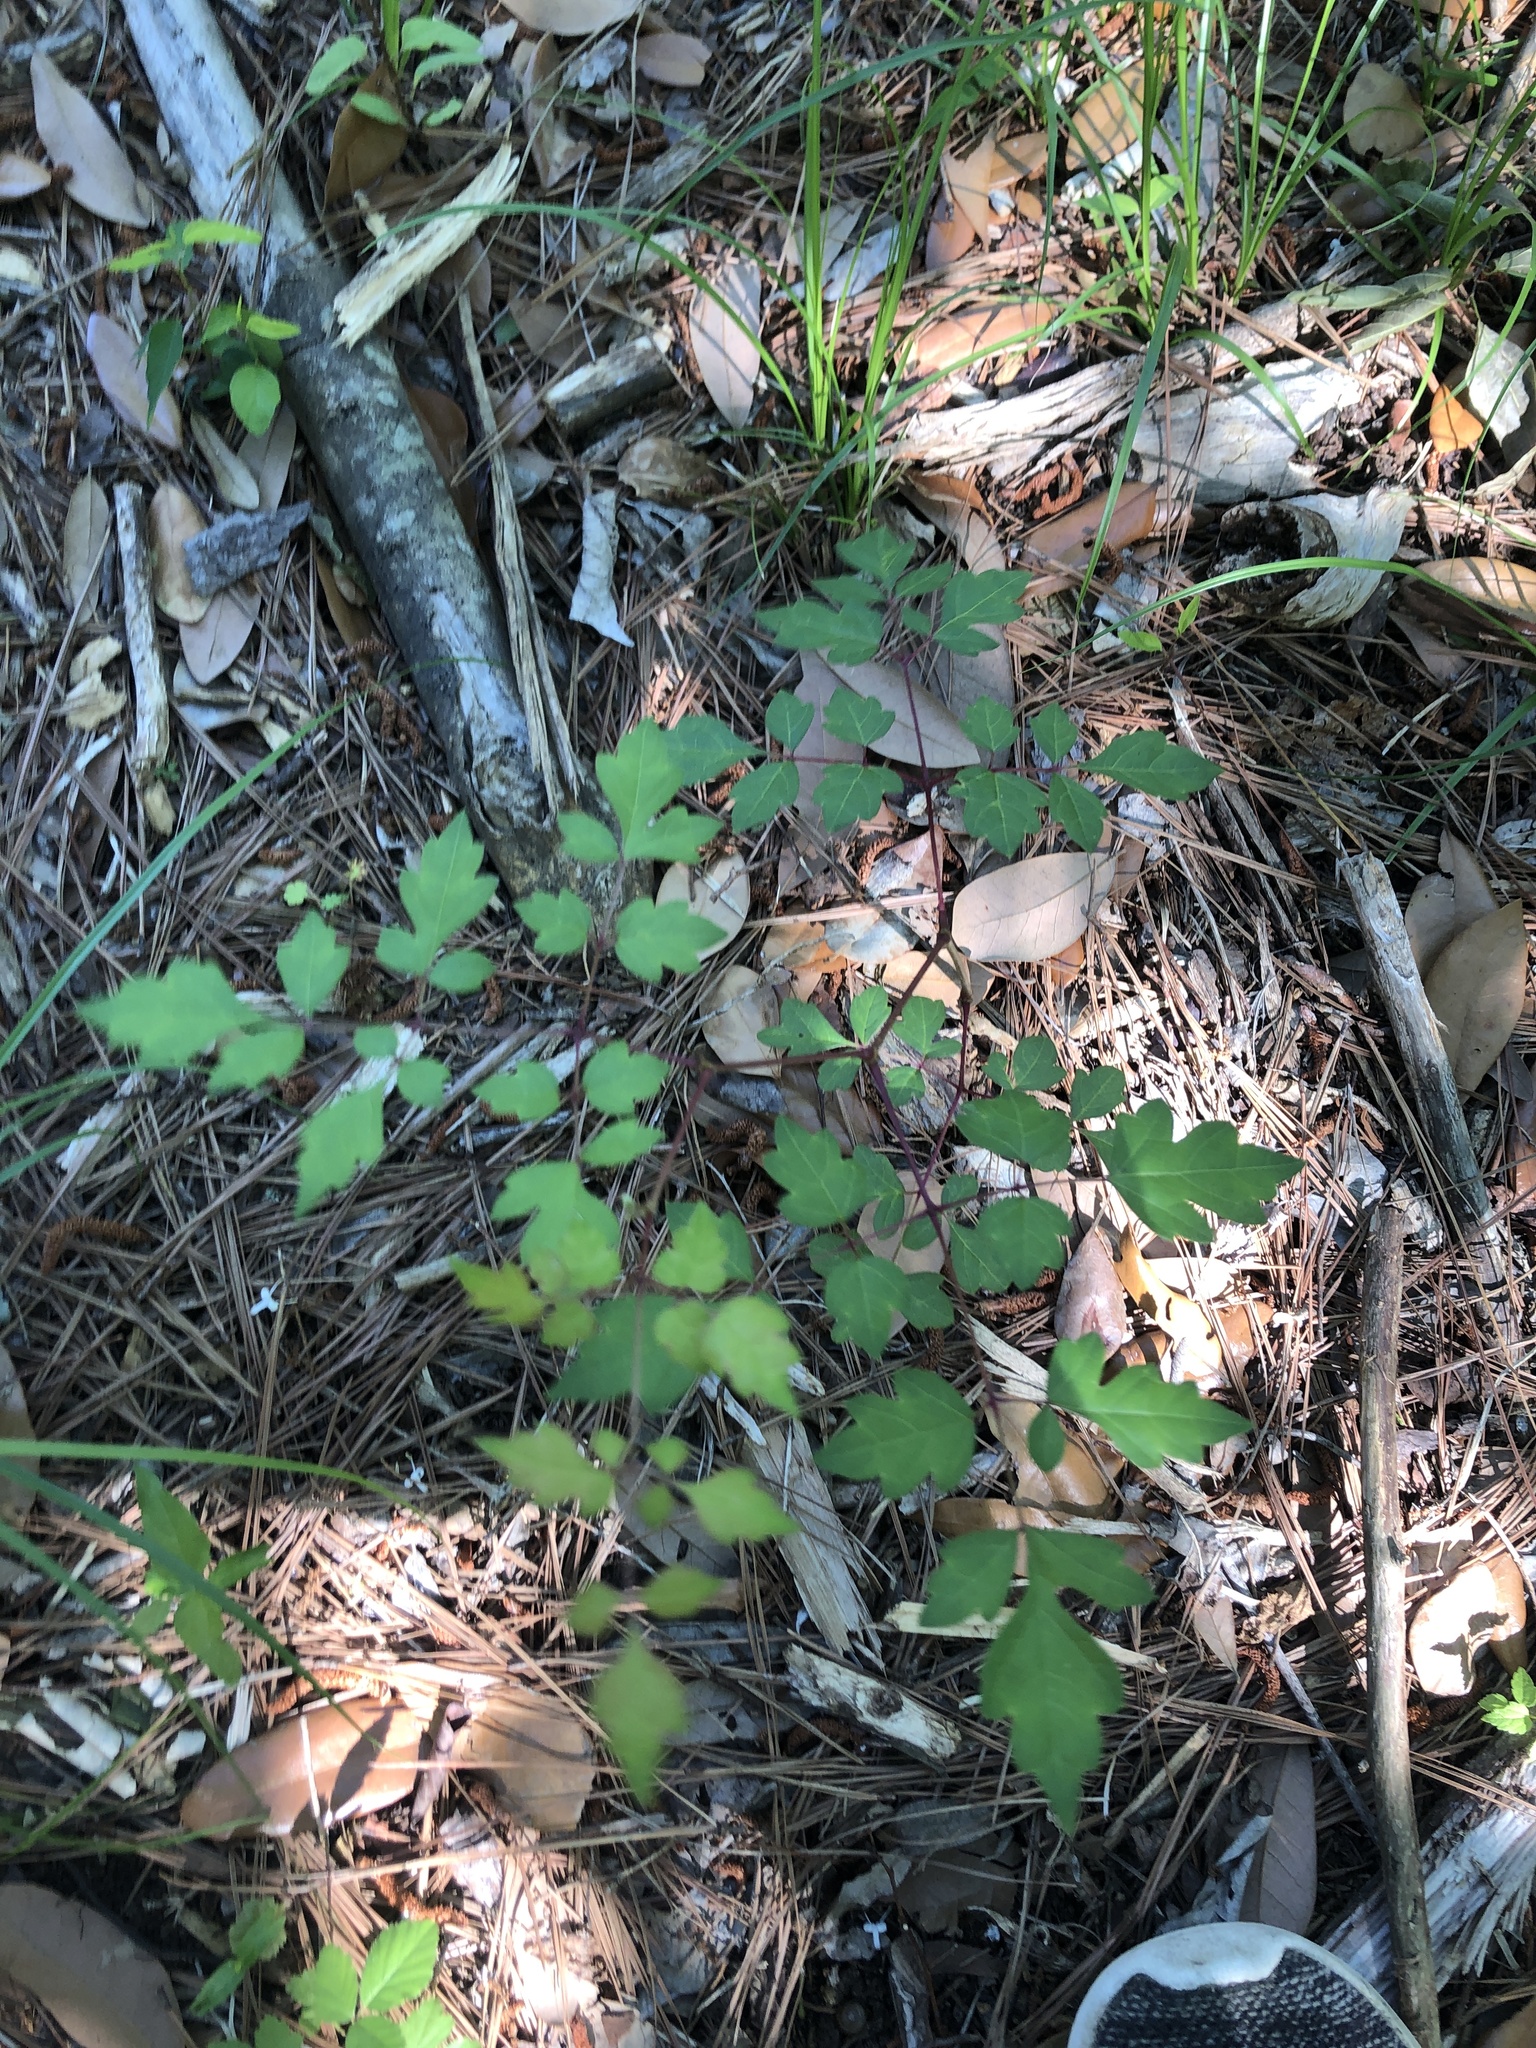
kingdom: Plantae
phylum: Tracheophyta
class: Magnoliopsida
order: Vitales
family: Vitaceae
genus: Nekemias
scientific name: Nekemias arborea
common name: Peppervine
